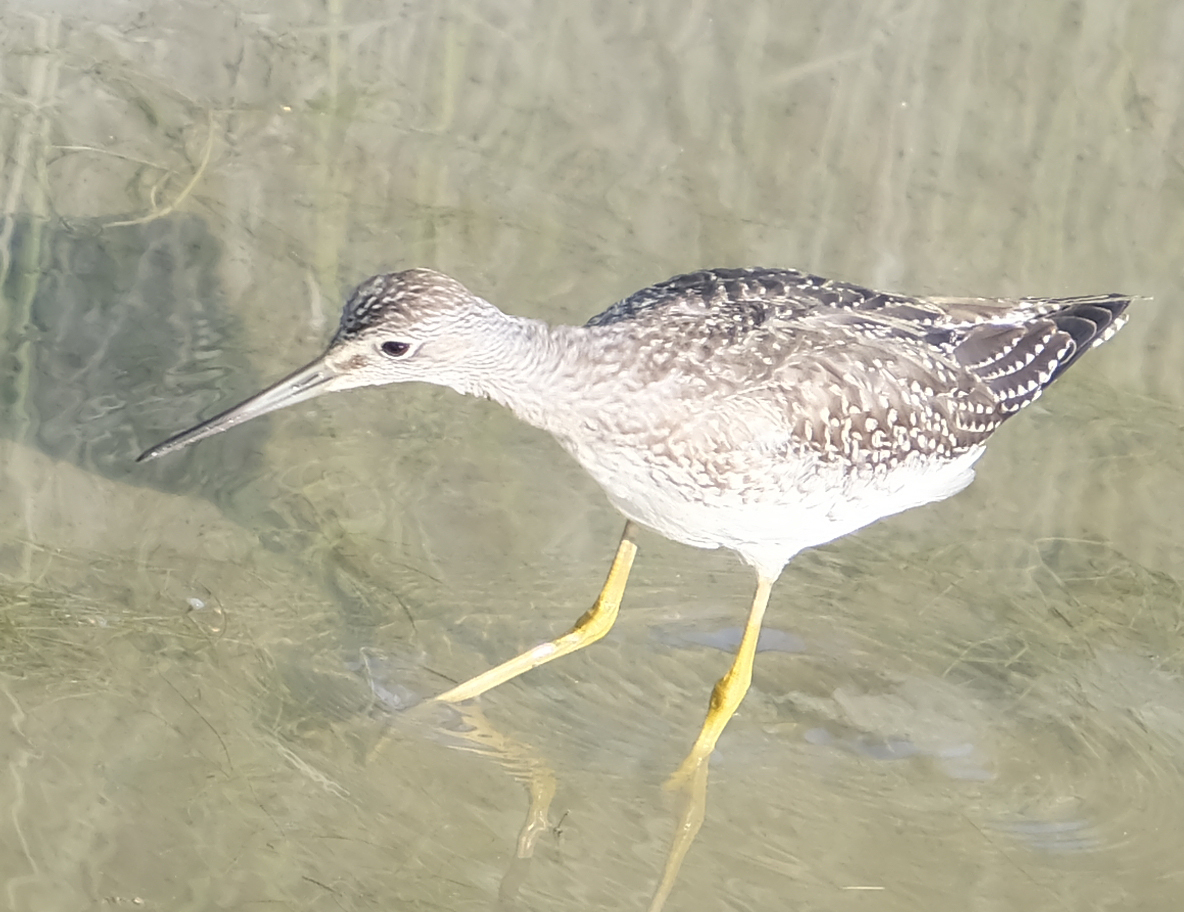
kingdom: Animalia
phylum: Chordata
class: Aves
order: Charadriiformes
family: Scolopacidae
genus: Tringa
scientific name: Tringa melanoleuca
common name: Greater yellowlegs
